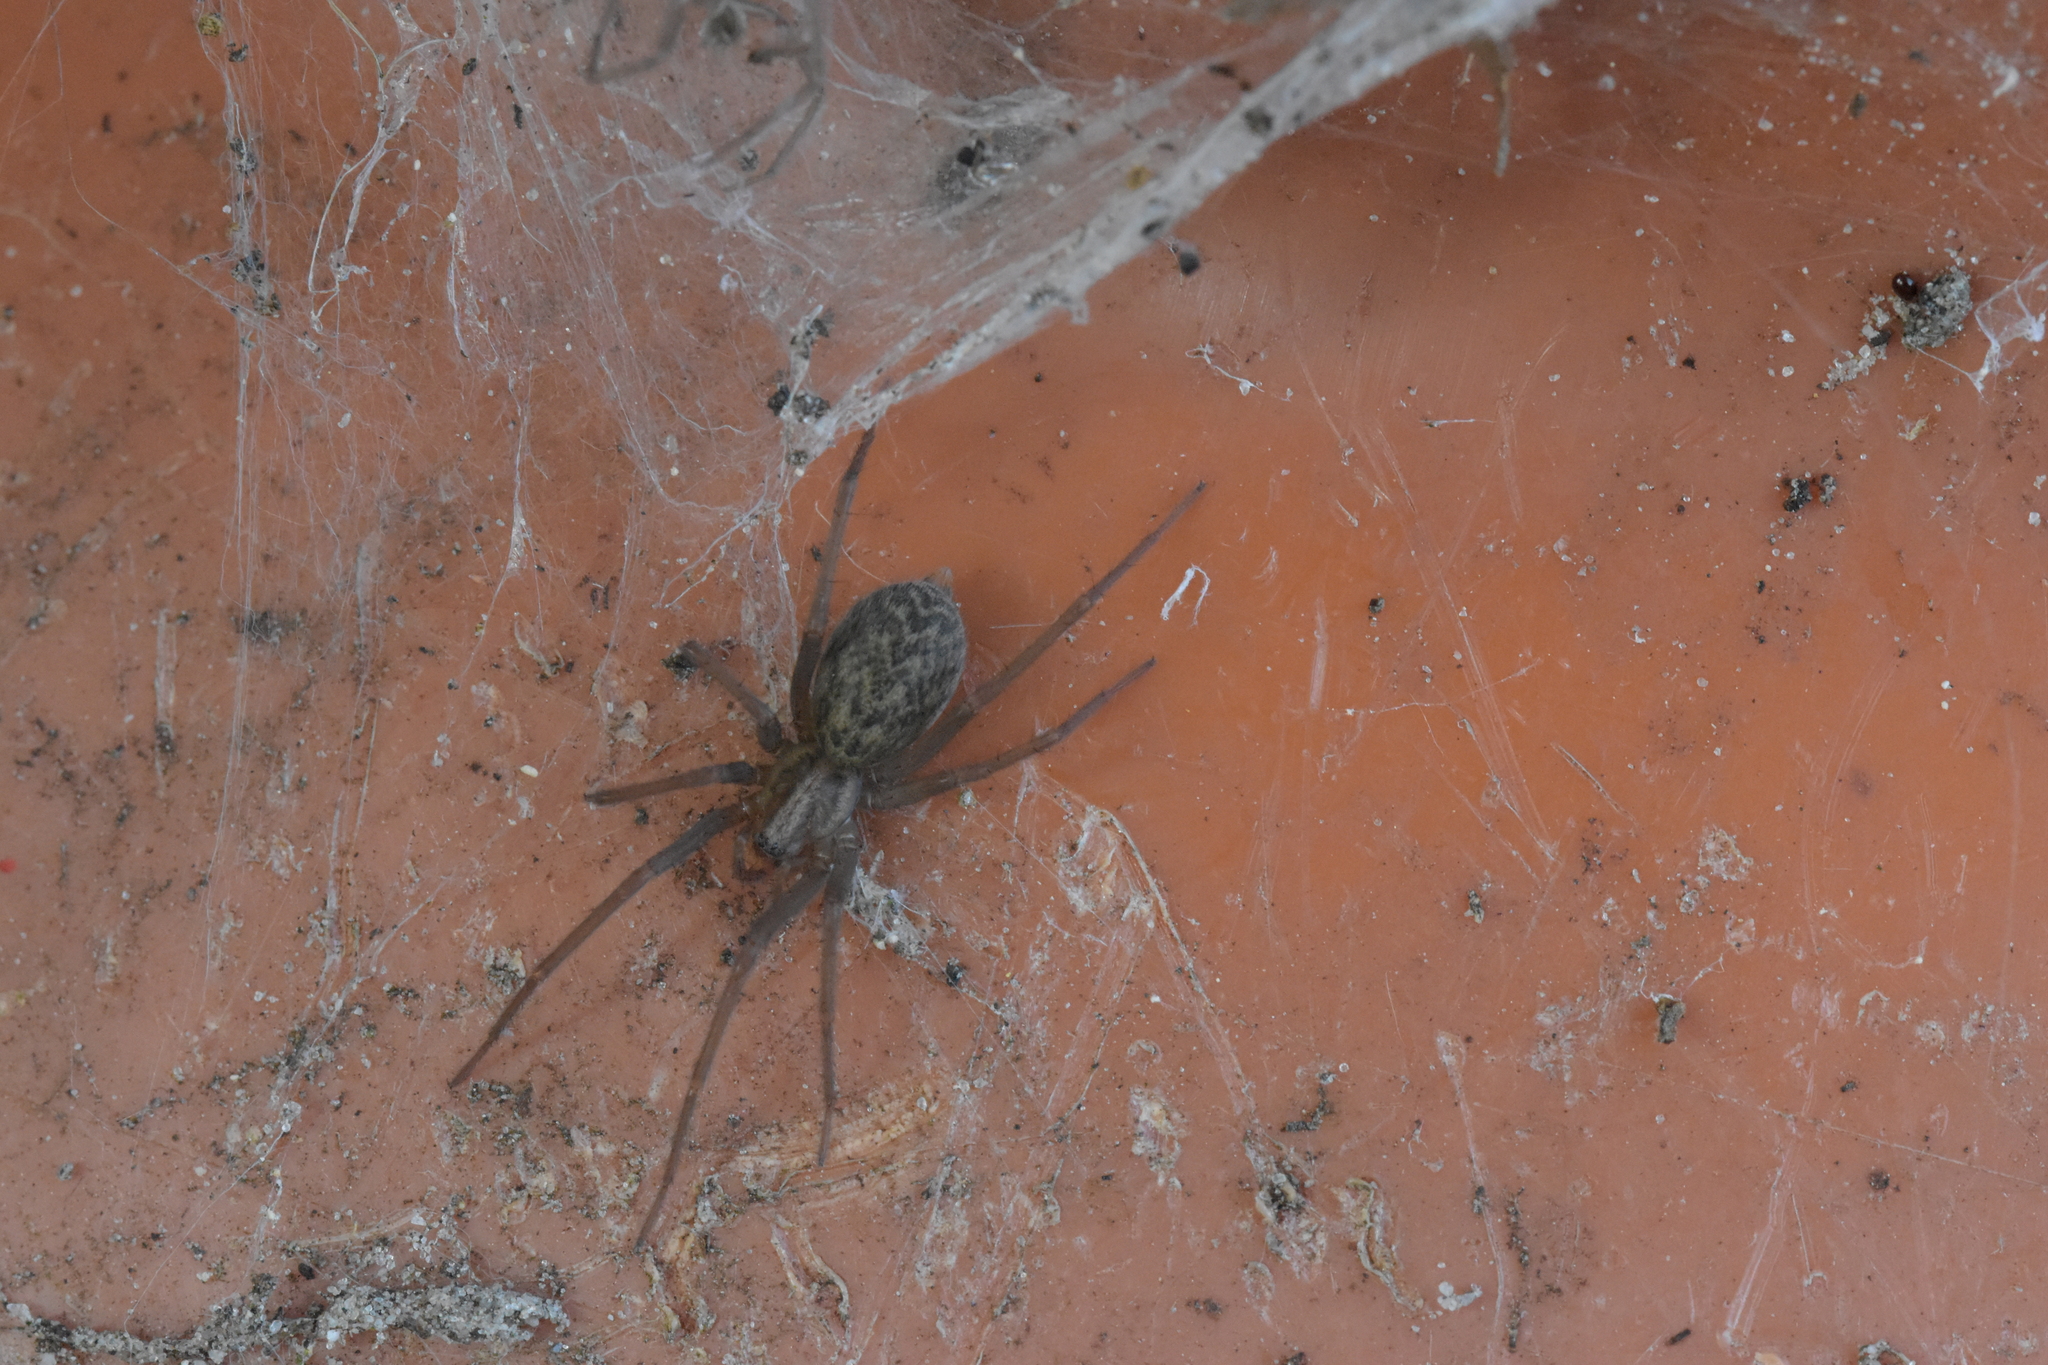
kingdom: Animalia
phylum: Arthropoda
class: Arachnida
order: Araneae
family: Agelenidae
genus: Eratigena
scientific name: Eratigena atrica
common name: Giant house spider
